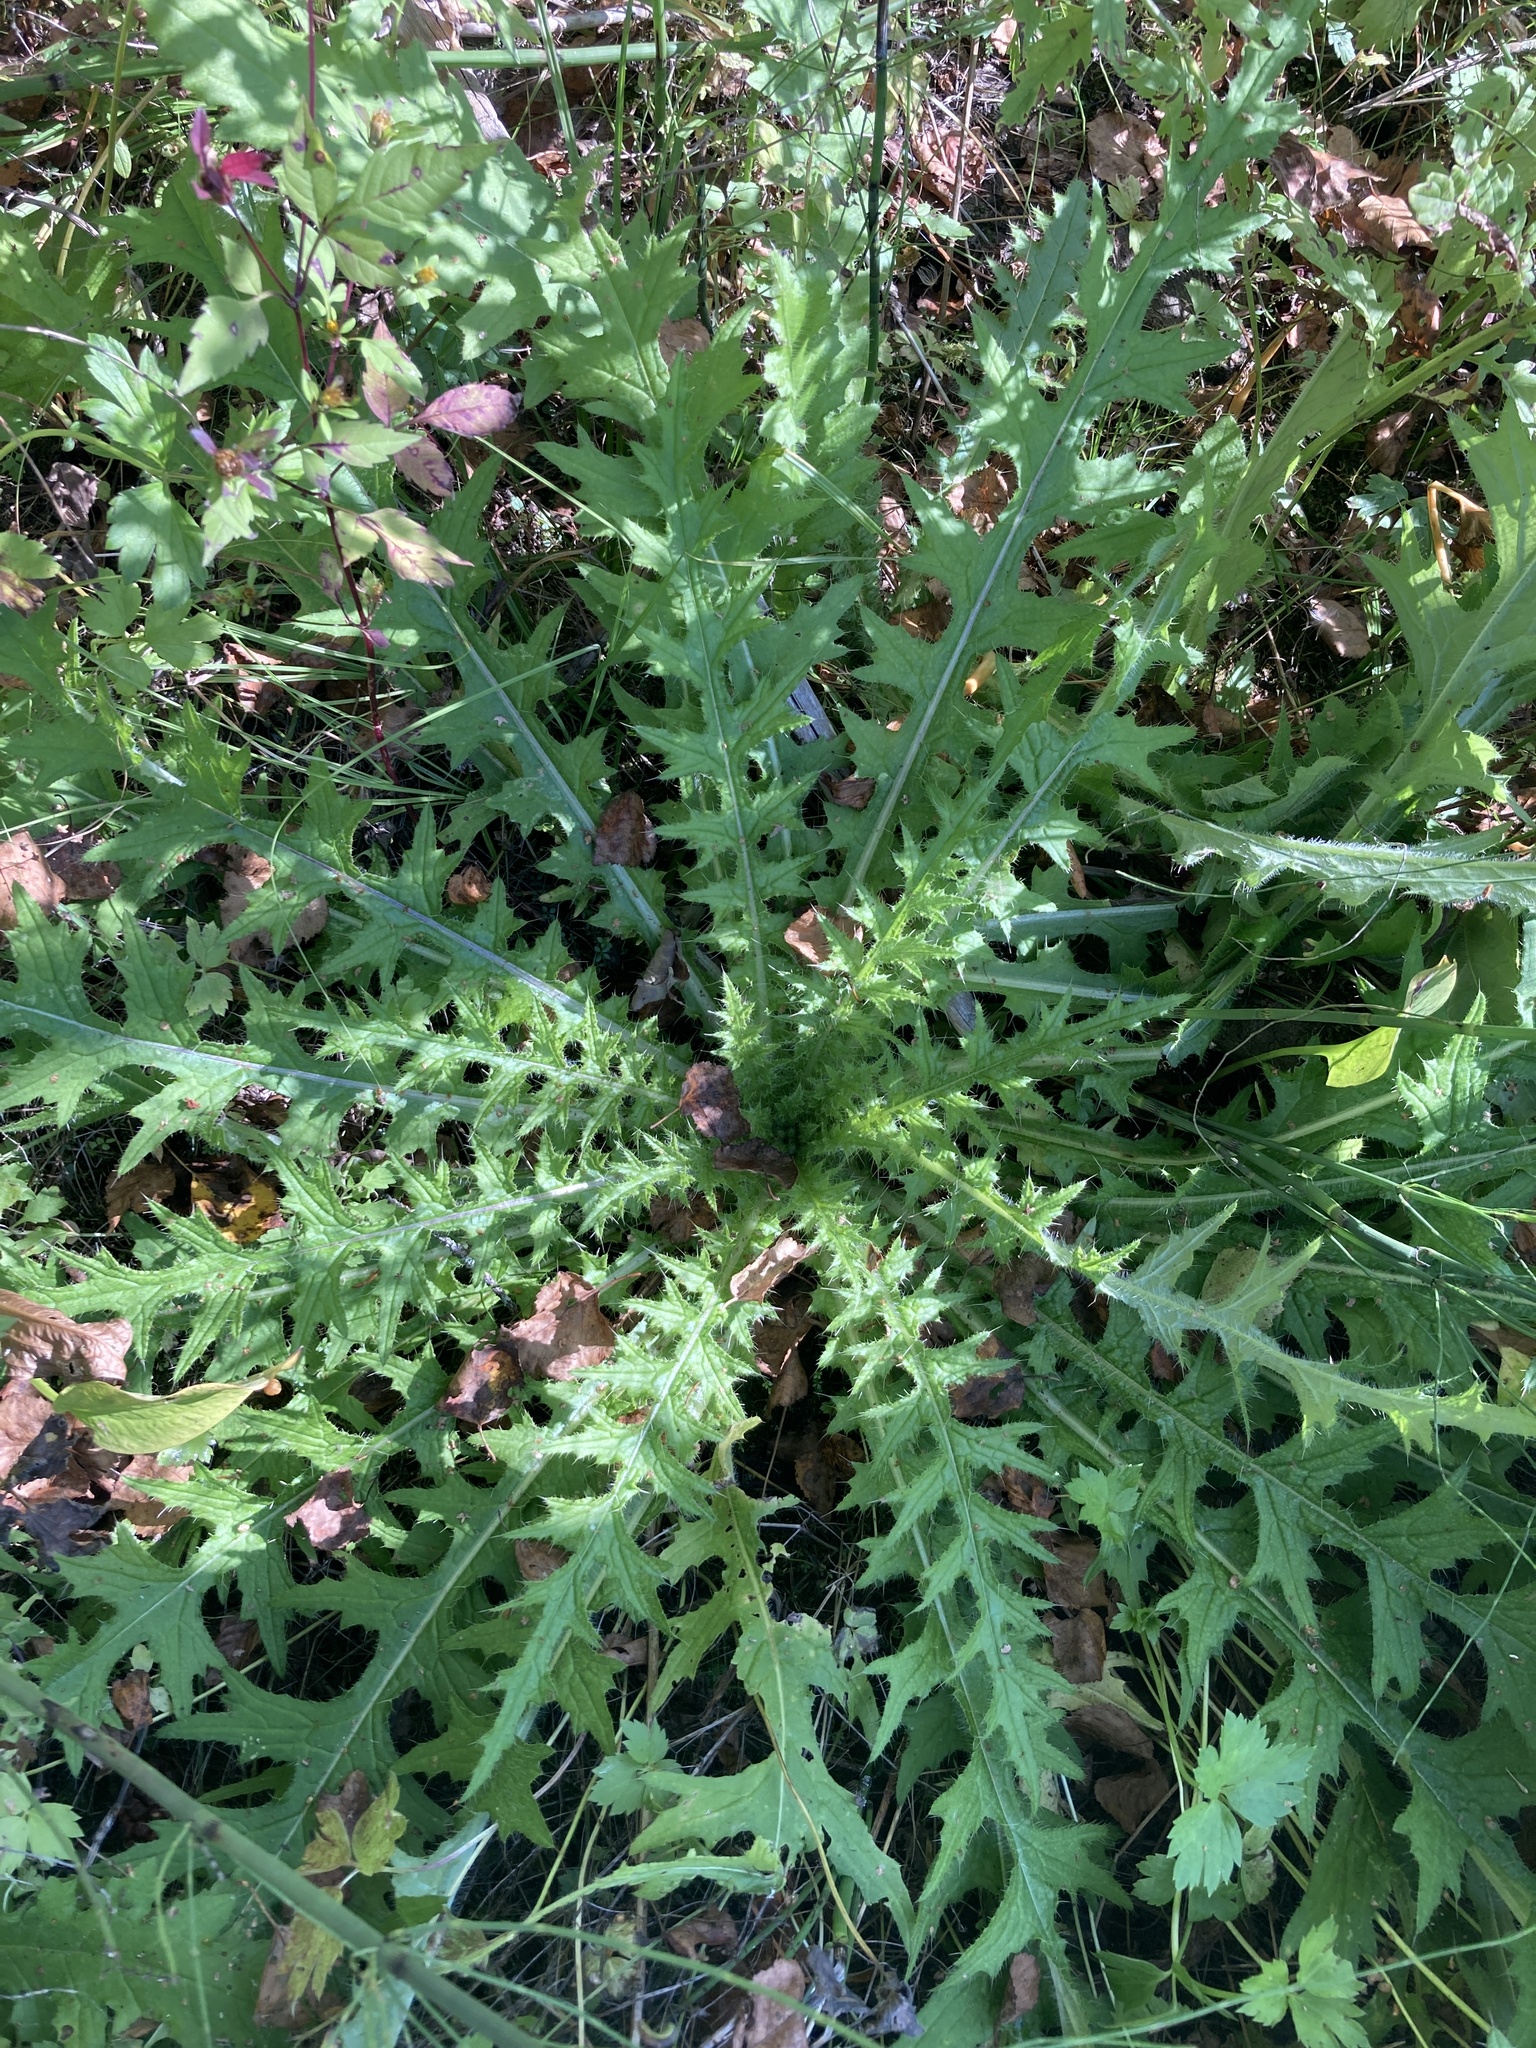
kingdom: Plantae
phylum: Tracheophyta
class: Magnoliopsida
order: Asterales
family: Asteraceae
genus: Cirsium
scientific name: Cirsium palustre
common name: Marsh thistle
